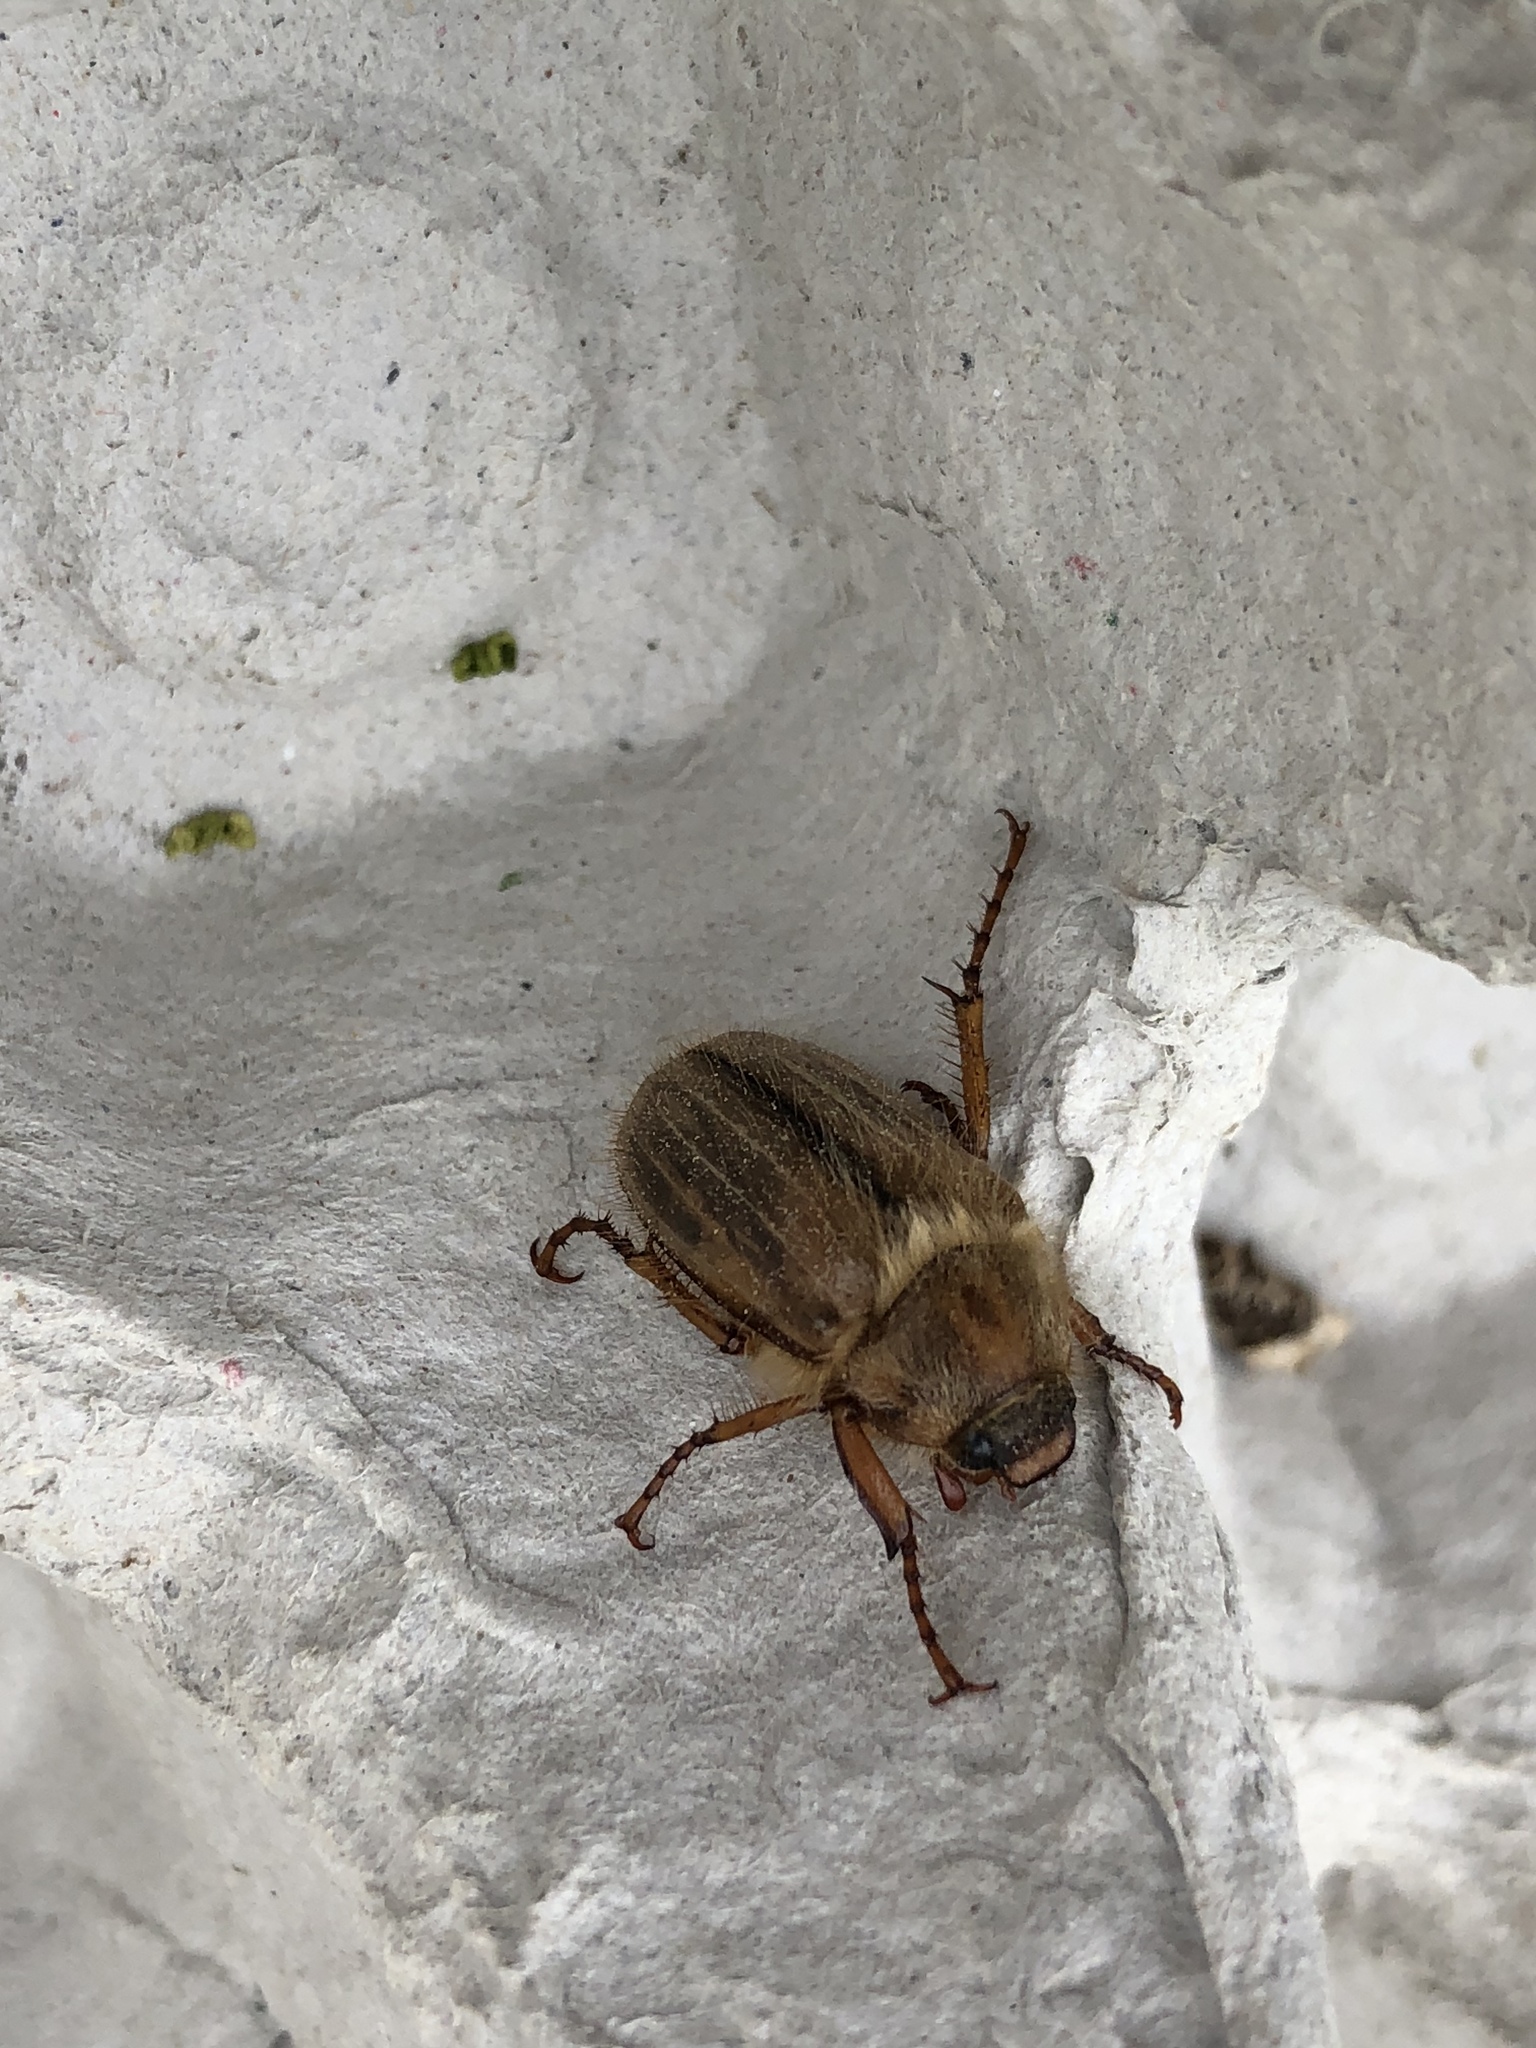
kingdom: Animalia
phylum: Arthropoda
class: Insecta
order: Coleoptera
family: Scarabaeidae
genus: Amphimallon
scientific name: Amphimallon solstitiale
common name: Summer chafer
